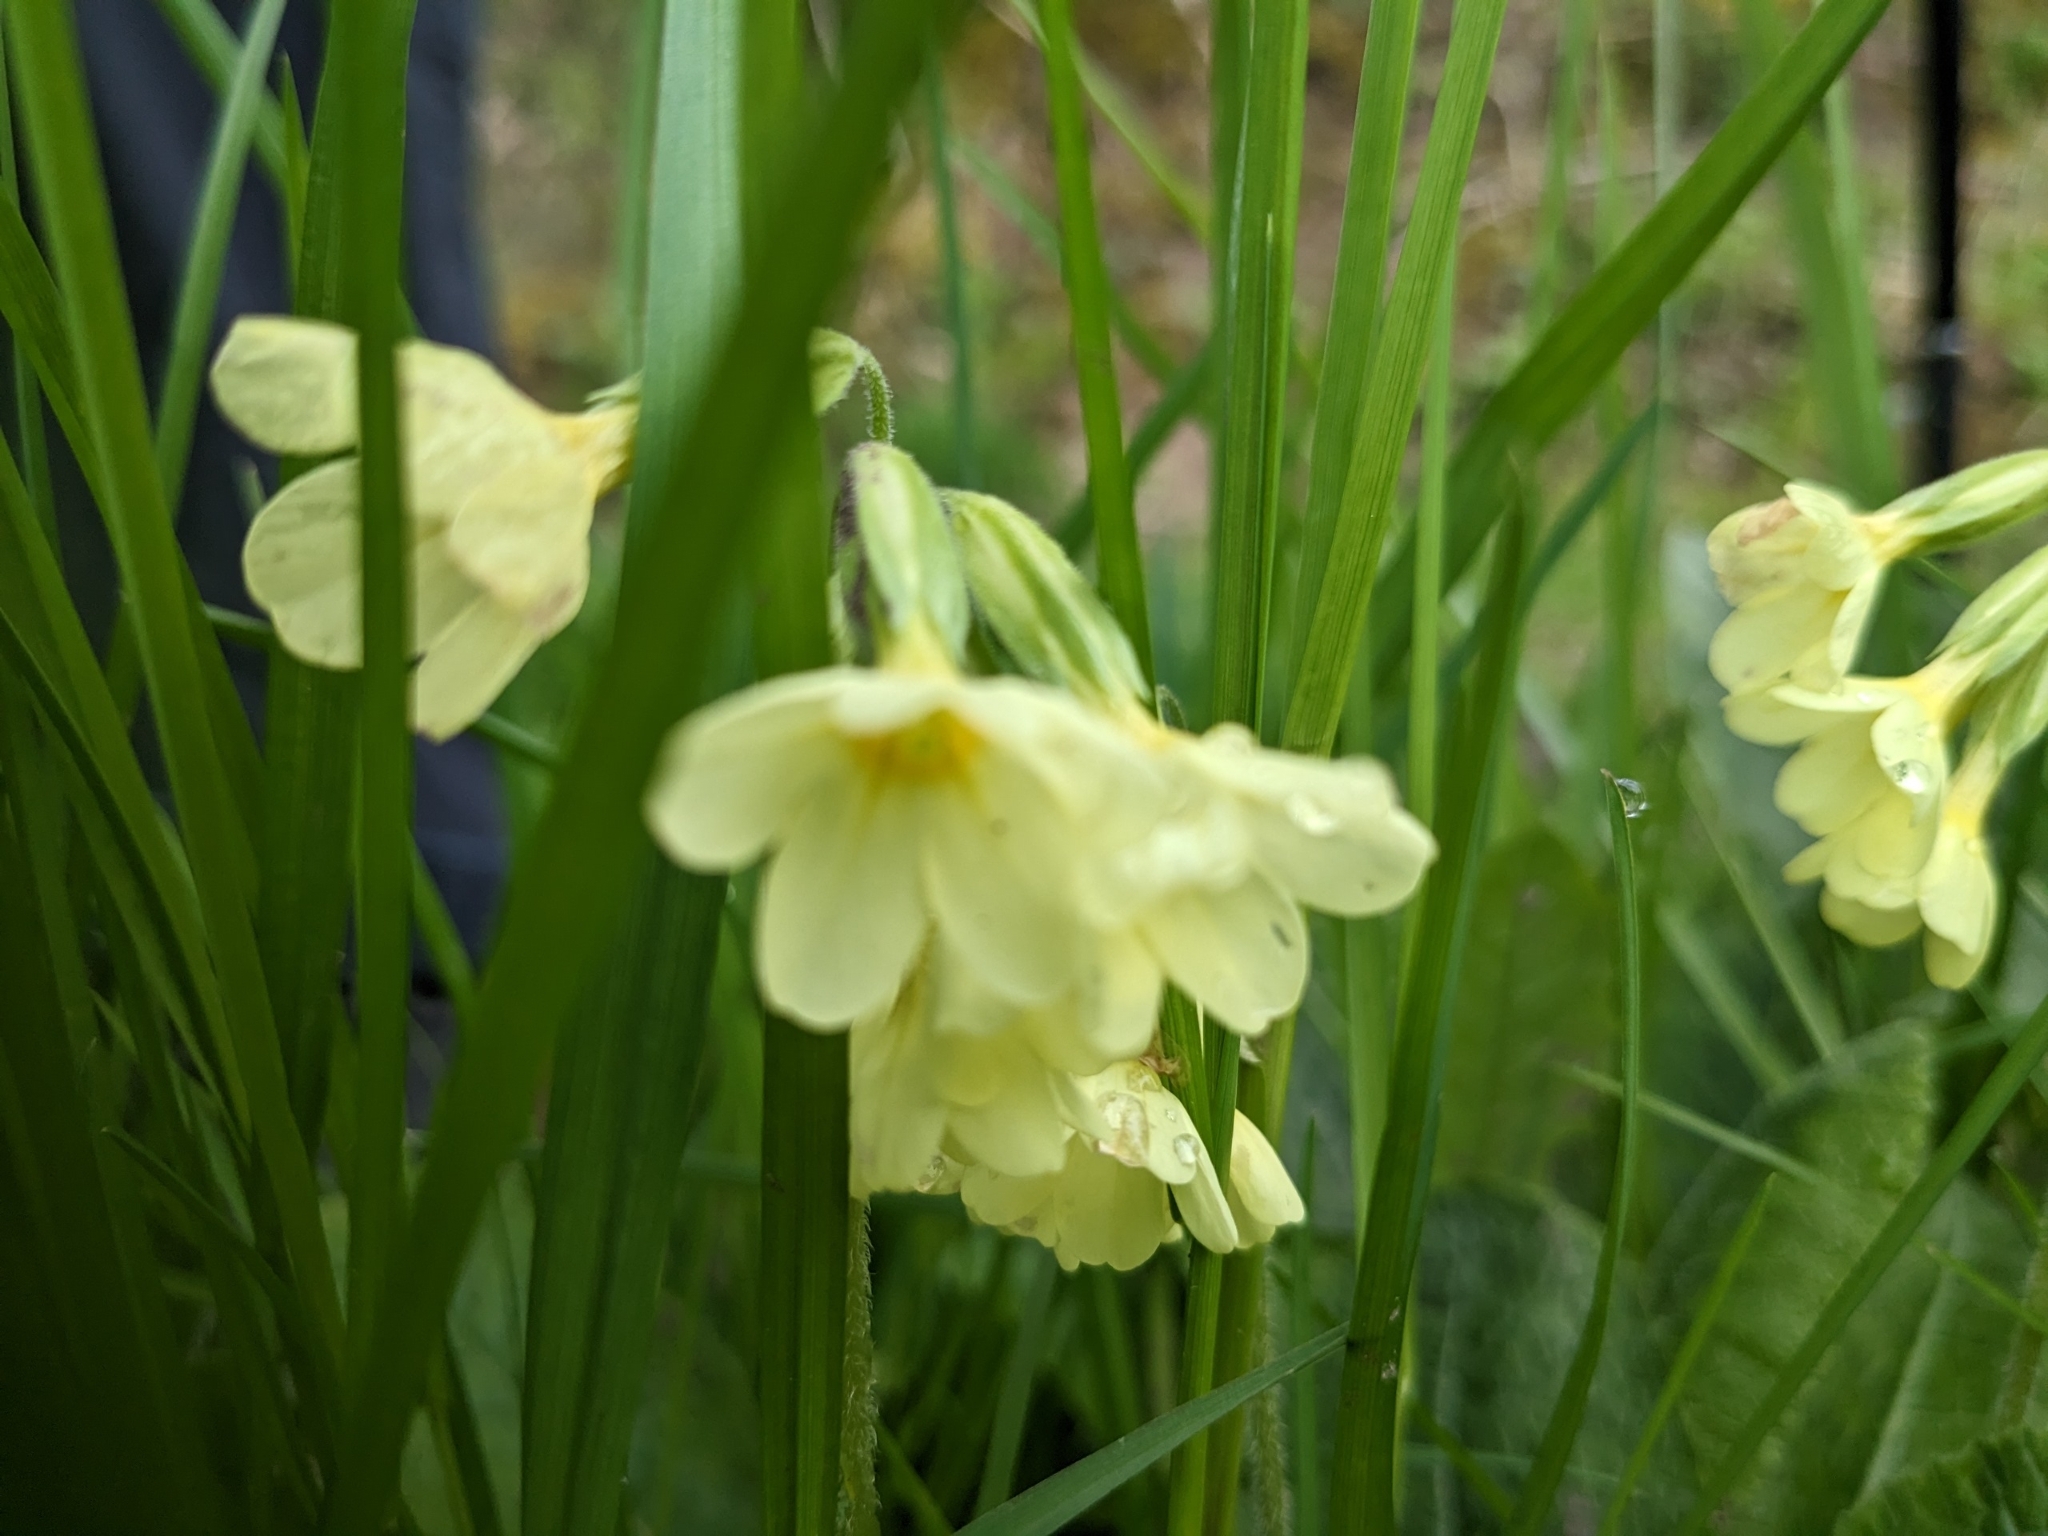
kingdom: Plantae
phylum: Tracheophyta
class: Magnoliopsida
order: Ericales
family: Primulaceae
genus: Primula
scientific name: Primula elatior
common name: Oxlip
